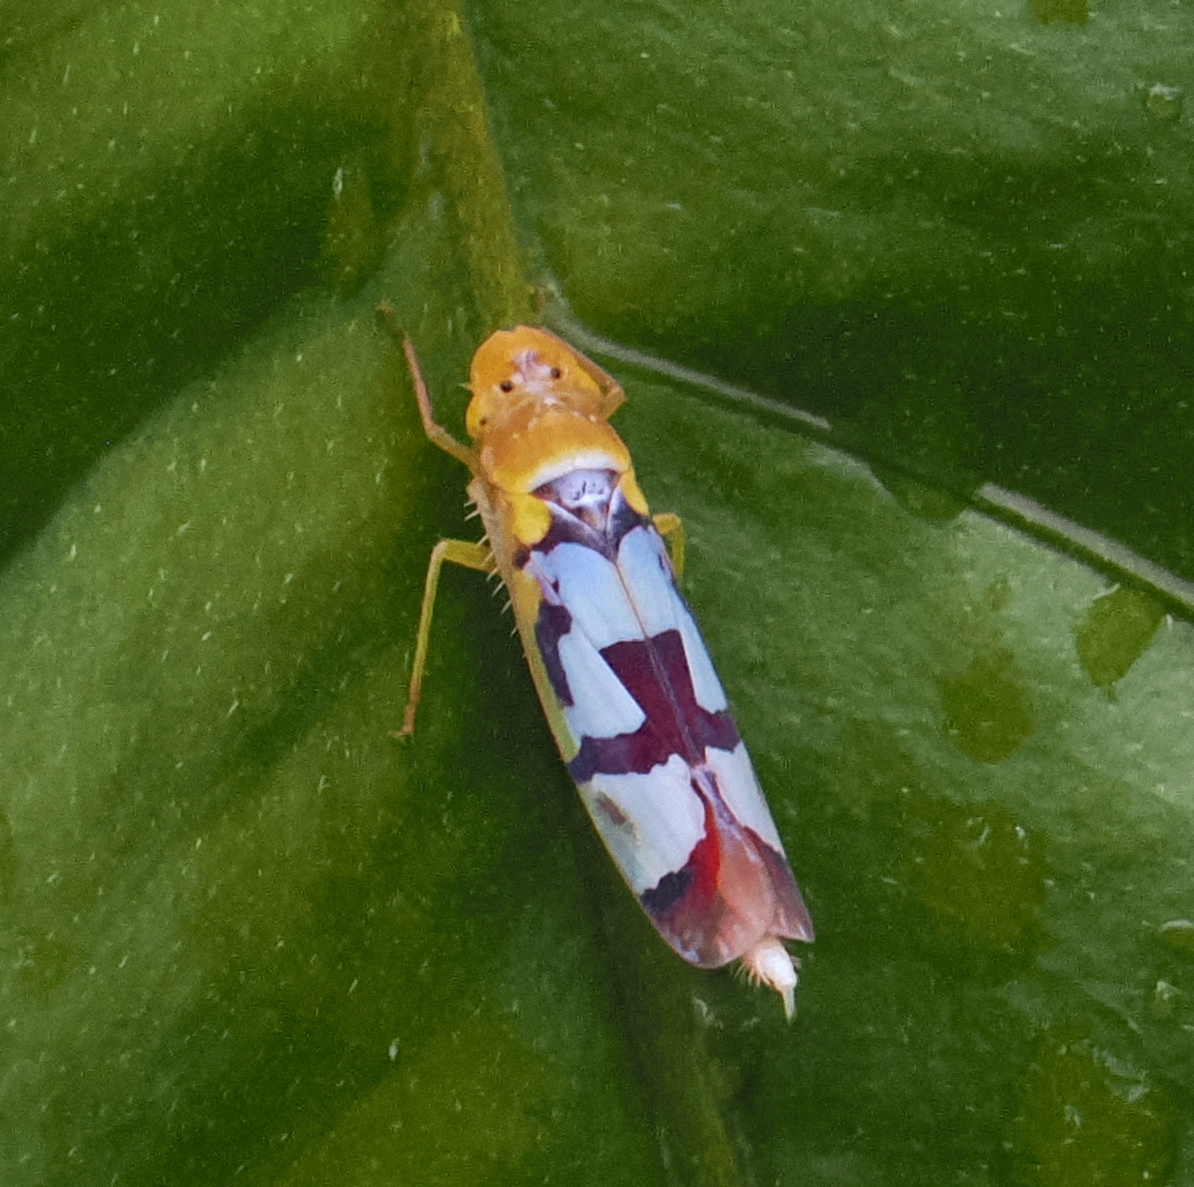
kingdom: Animalia
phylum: Arthropoda
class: Insecta
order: Hemiptera
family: Cicadellidae
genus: Baleja
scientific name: Baleja rufofasciata
